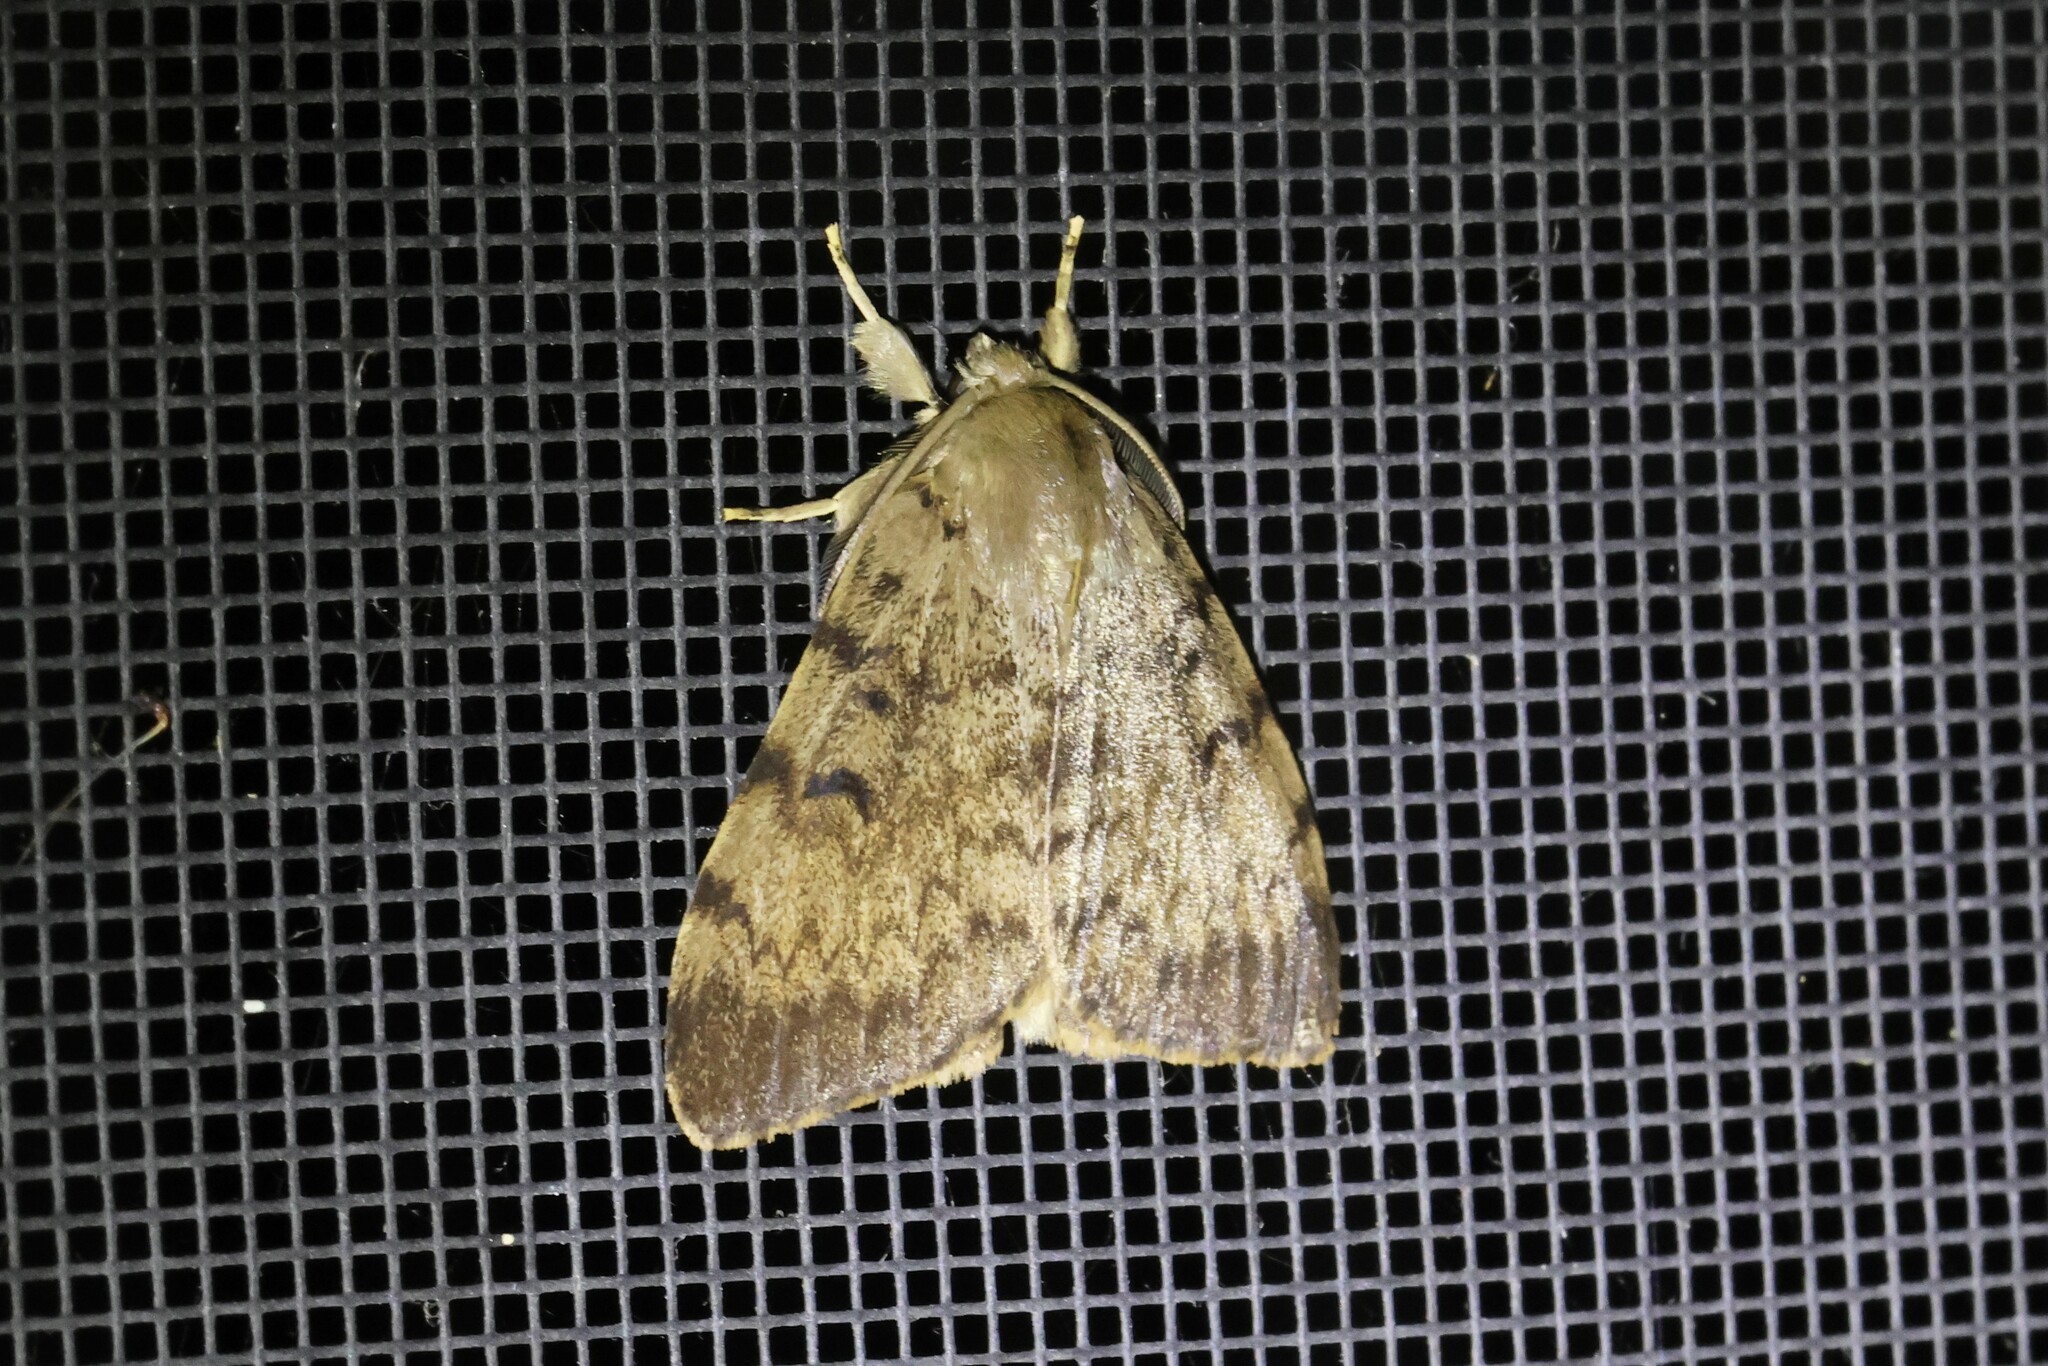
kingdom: Animalia
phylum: Arthropoda
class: Insecta
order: Lepidoptera
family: Erebidae
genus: Lymantria
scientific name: Lymantria dispar
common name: Gypsy moth
